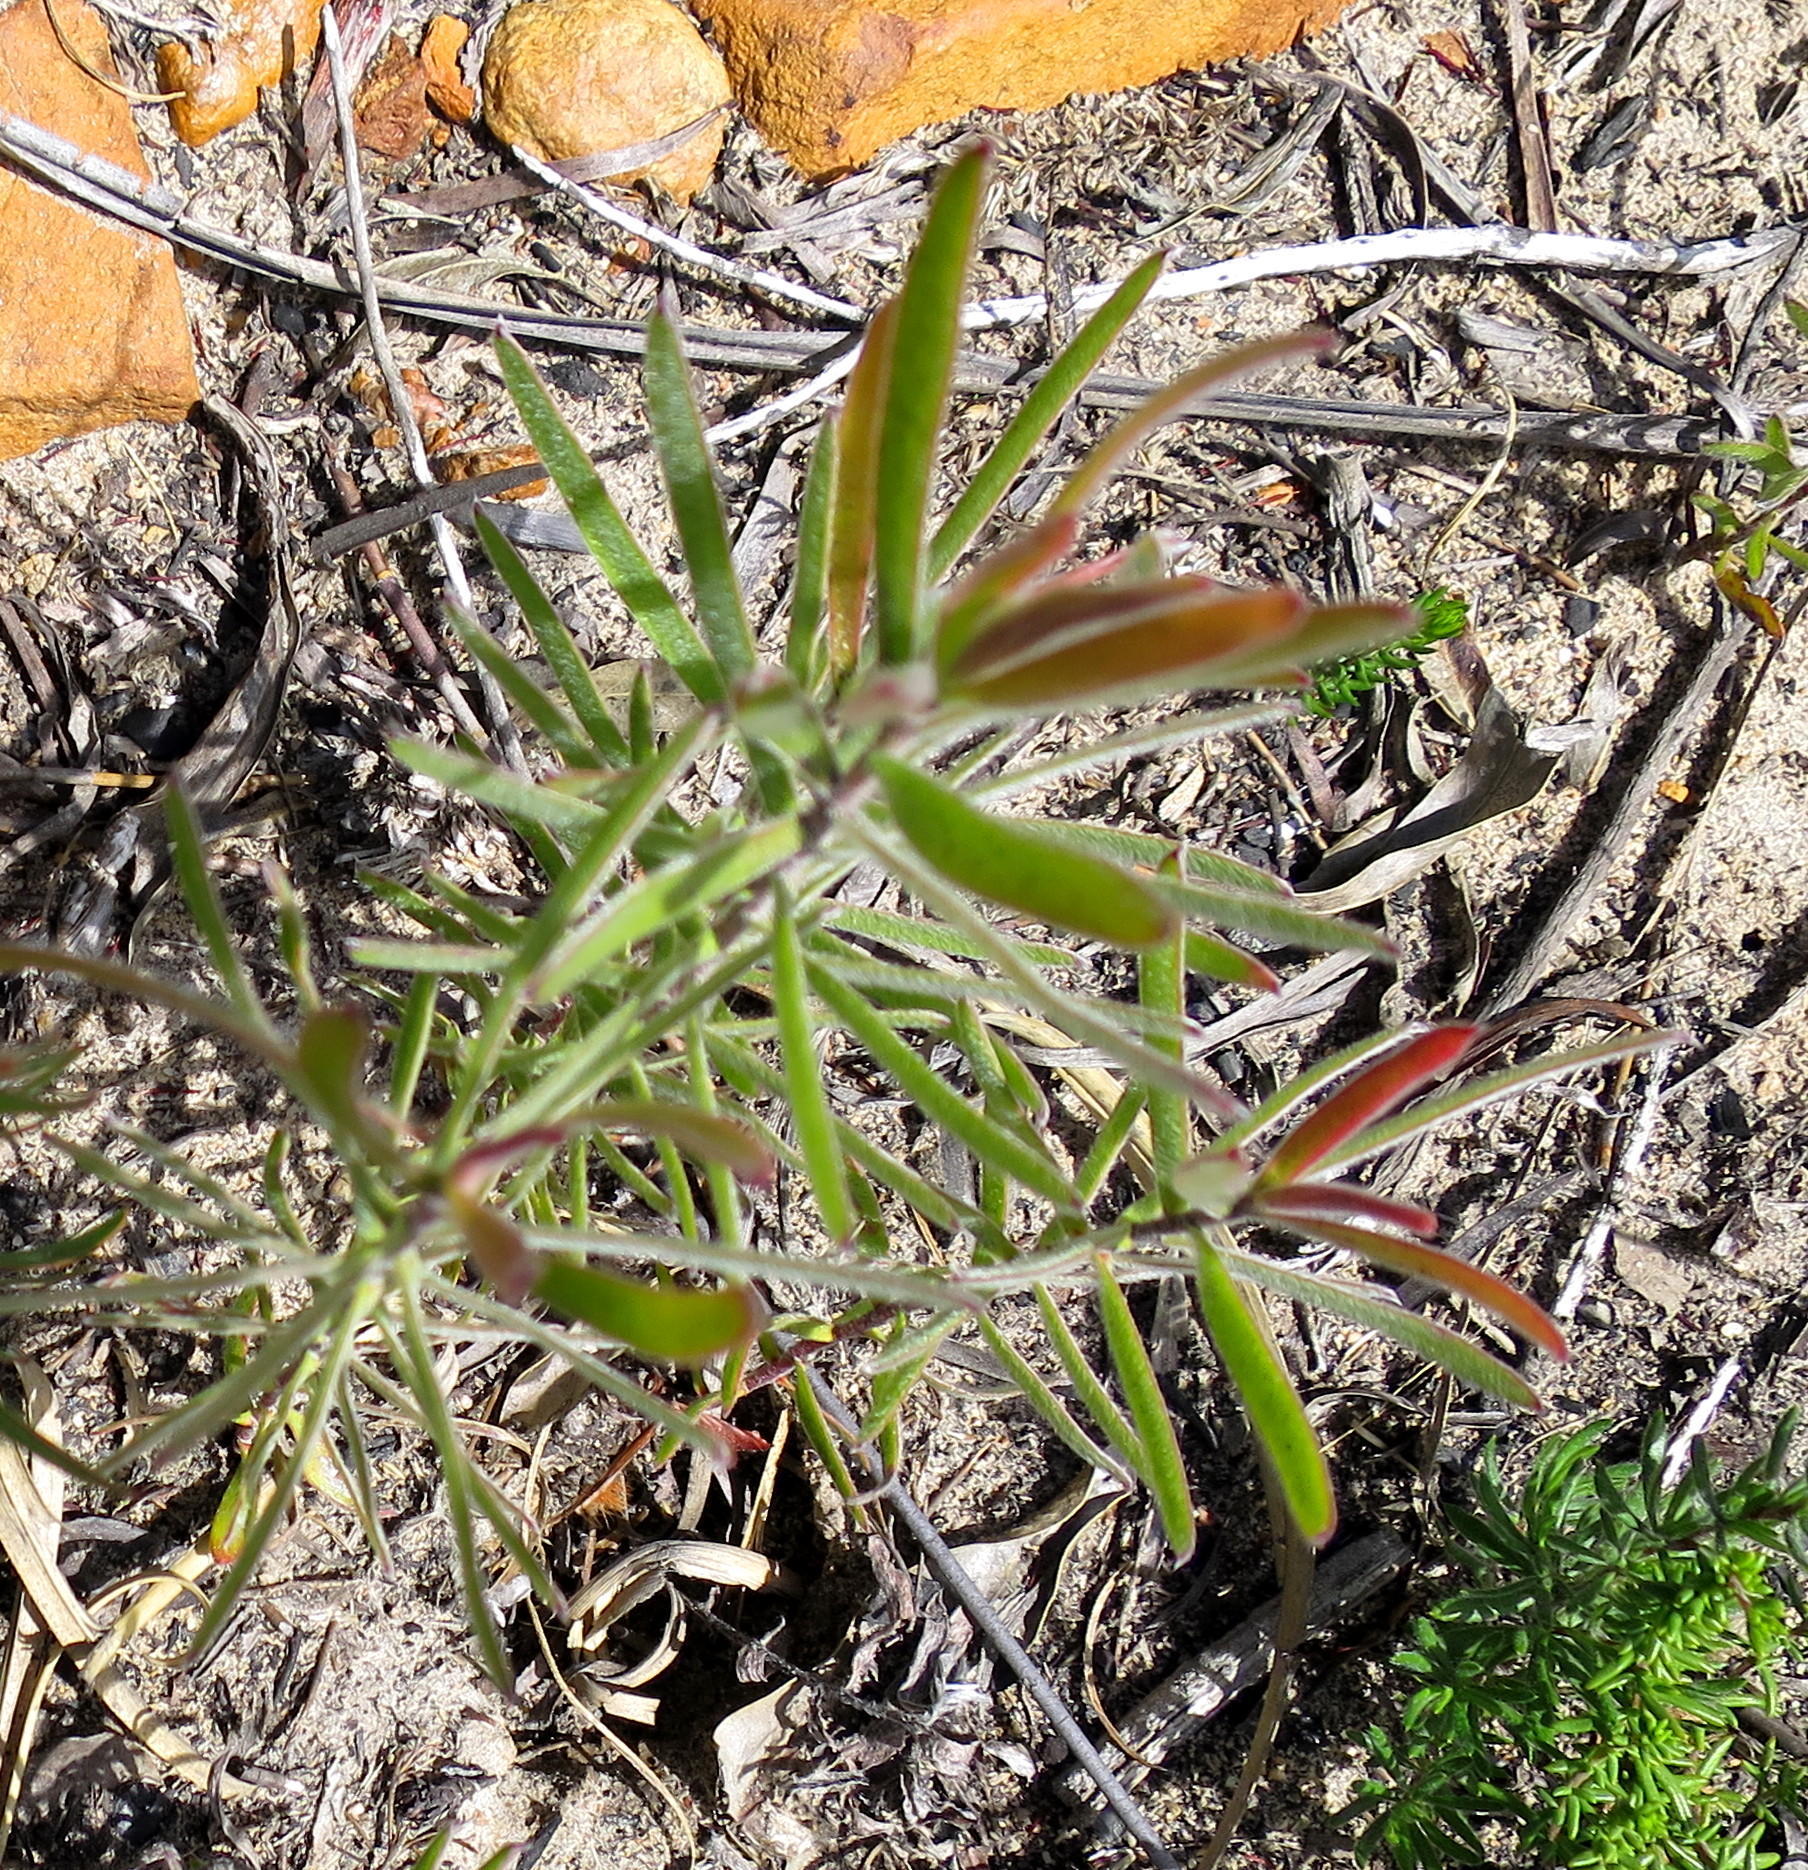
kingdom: Plantae
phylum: Tracheophyta
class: Magnoliopsida
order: Proteales
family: Proteaceae
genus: Leucadendron
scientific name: Leucadendron conicum
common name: Garden route conebush
